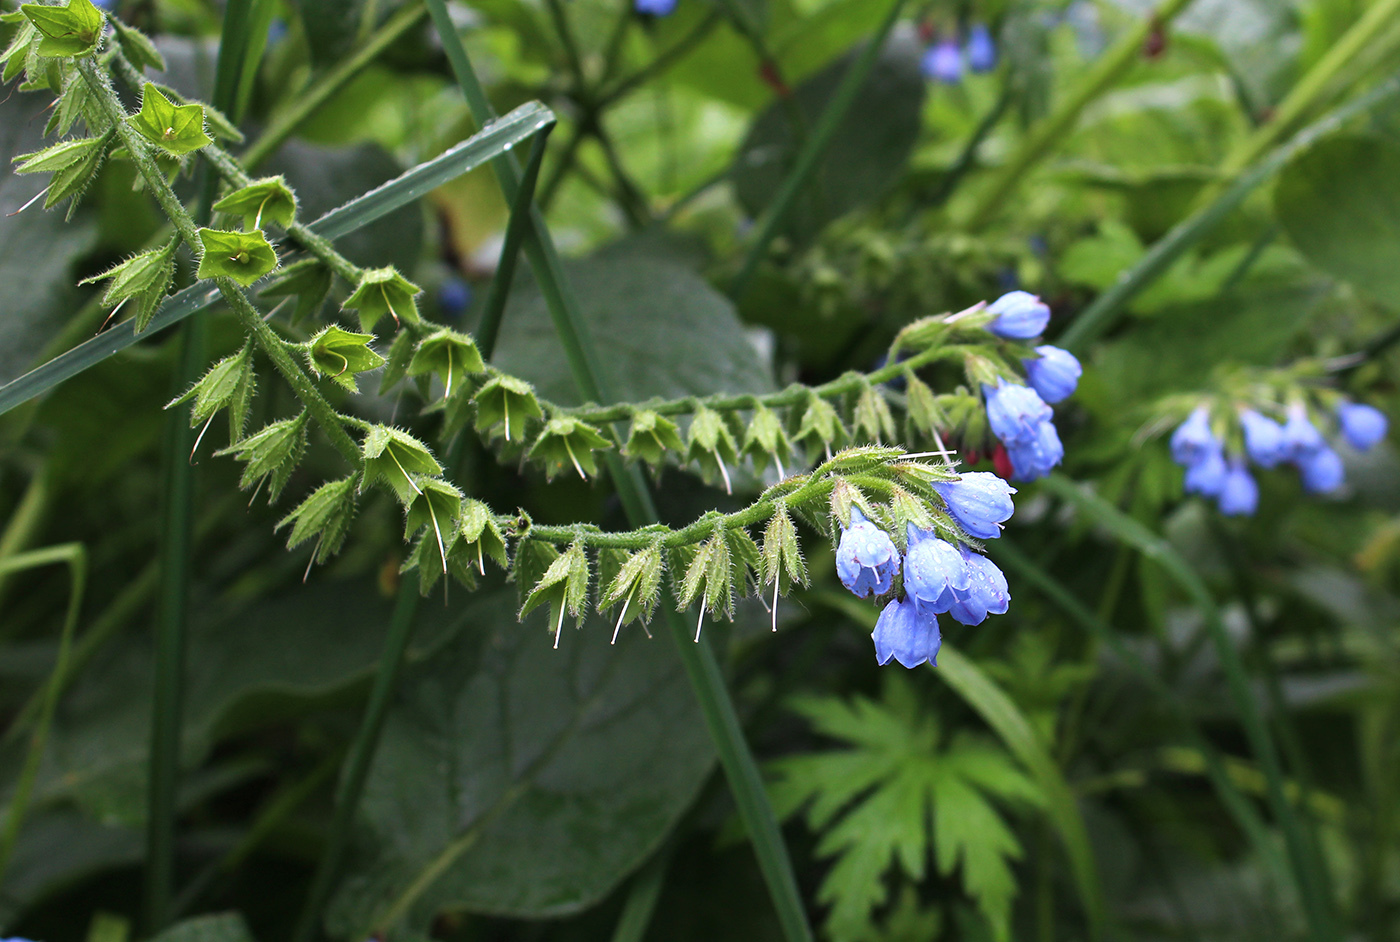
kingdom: Plantae
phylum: Tracheophyta
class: Magnoliopsida
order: Boraginales
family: Boraginaceae
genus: Symphytum
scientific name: Symphytum caucasicum
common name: Caucasian comfrey
